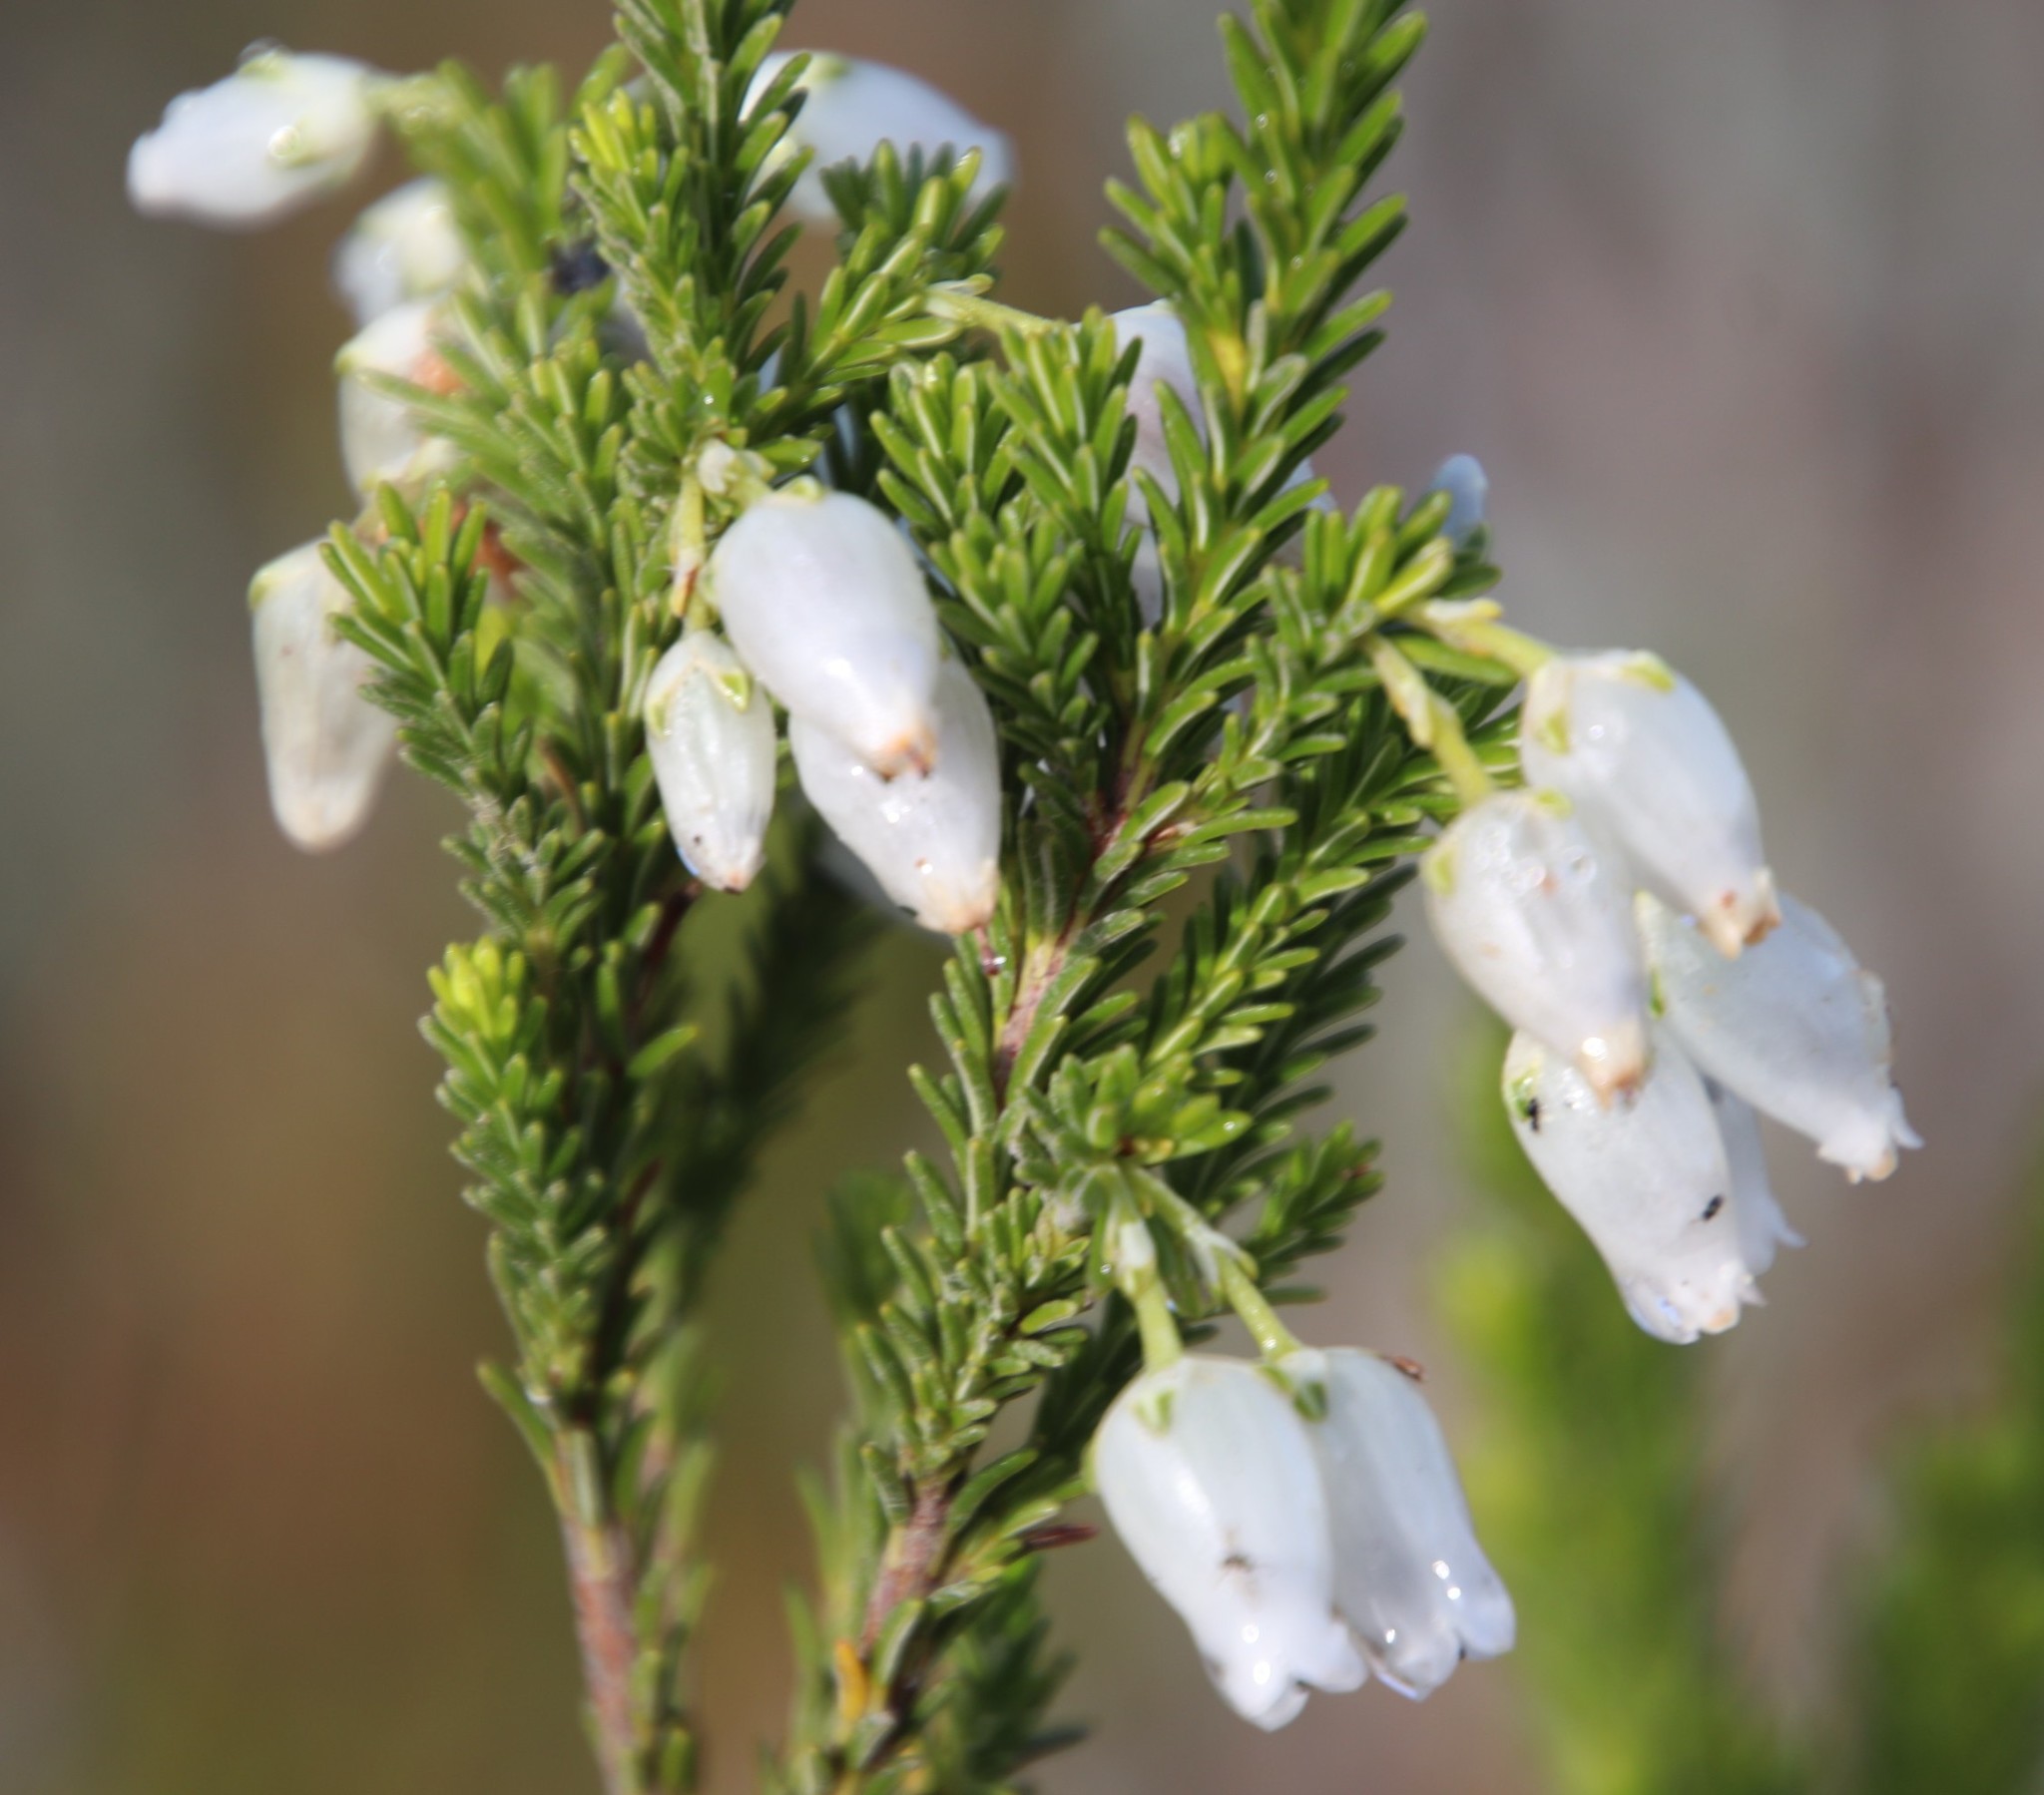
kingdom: Plantae
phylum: Tracheophyta
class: Magnoliopsida
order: Ericales
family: Ericaceae
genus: Erica
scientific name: Erica physodes
